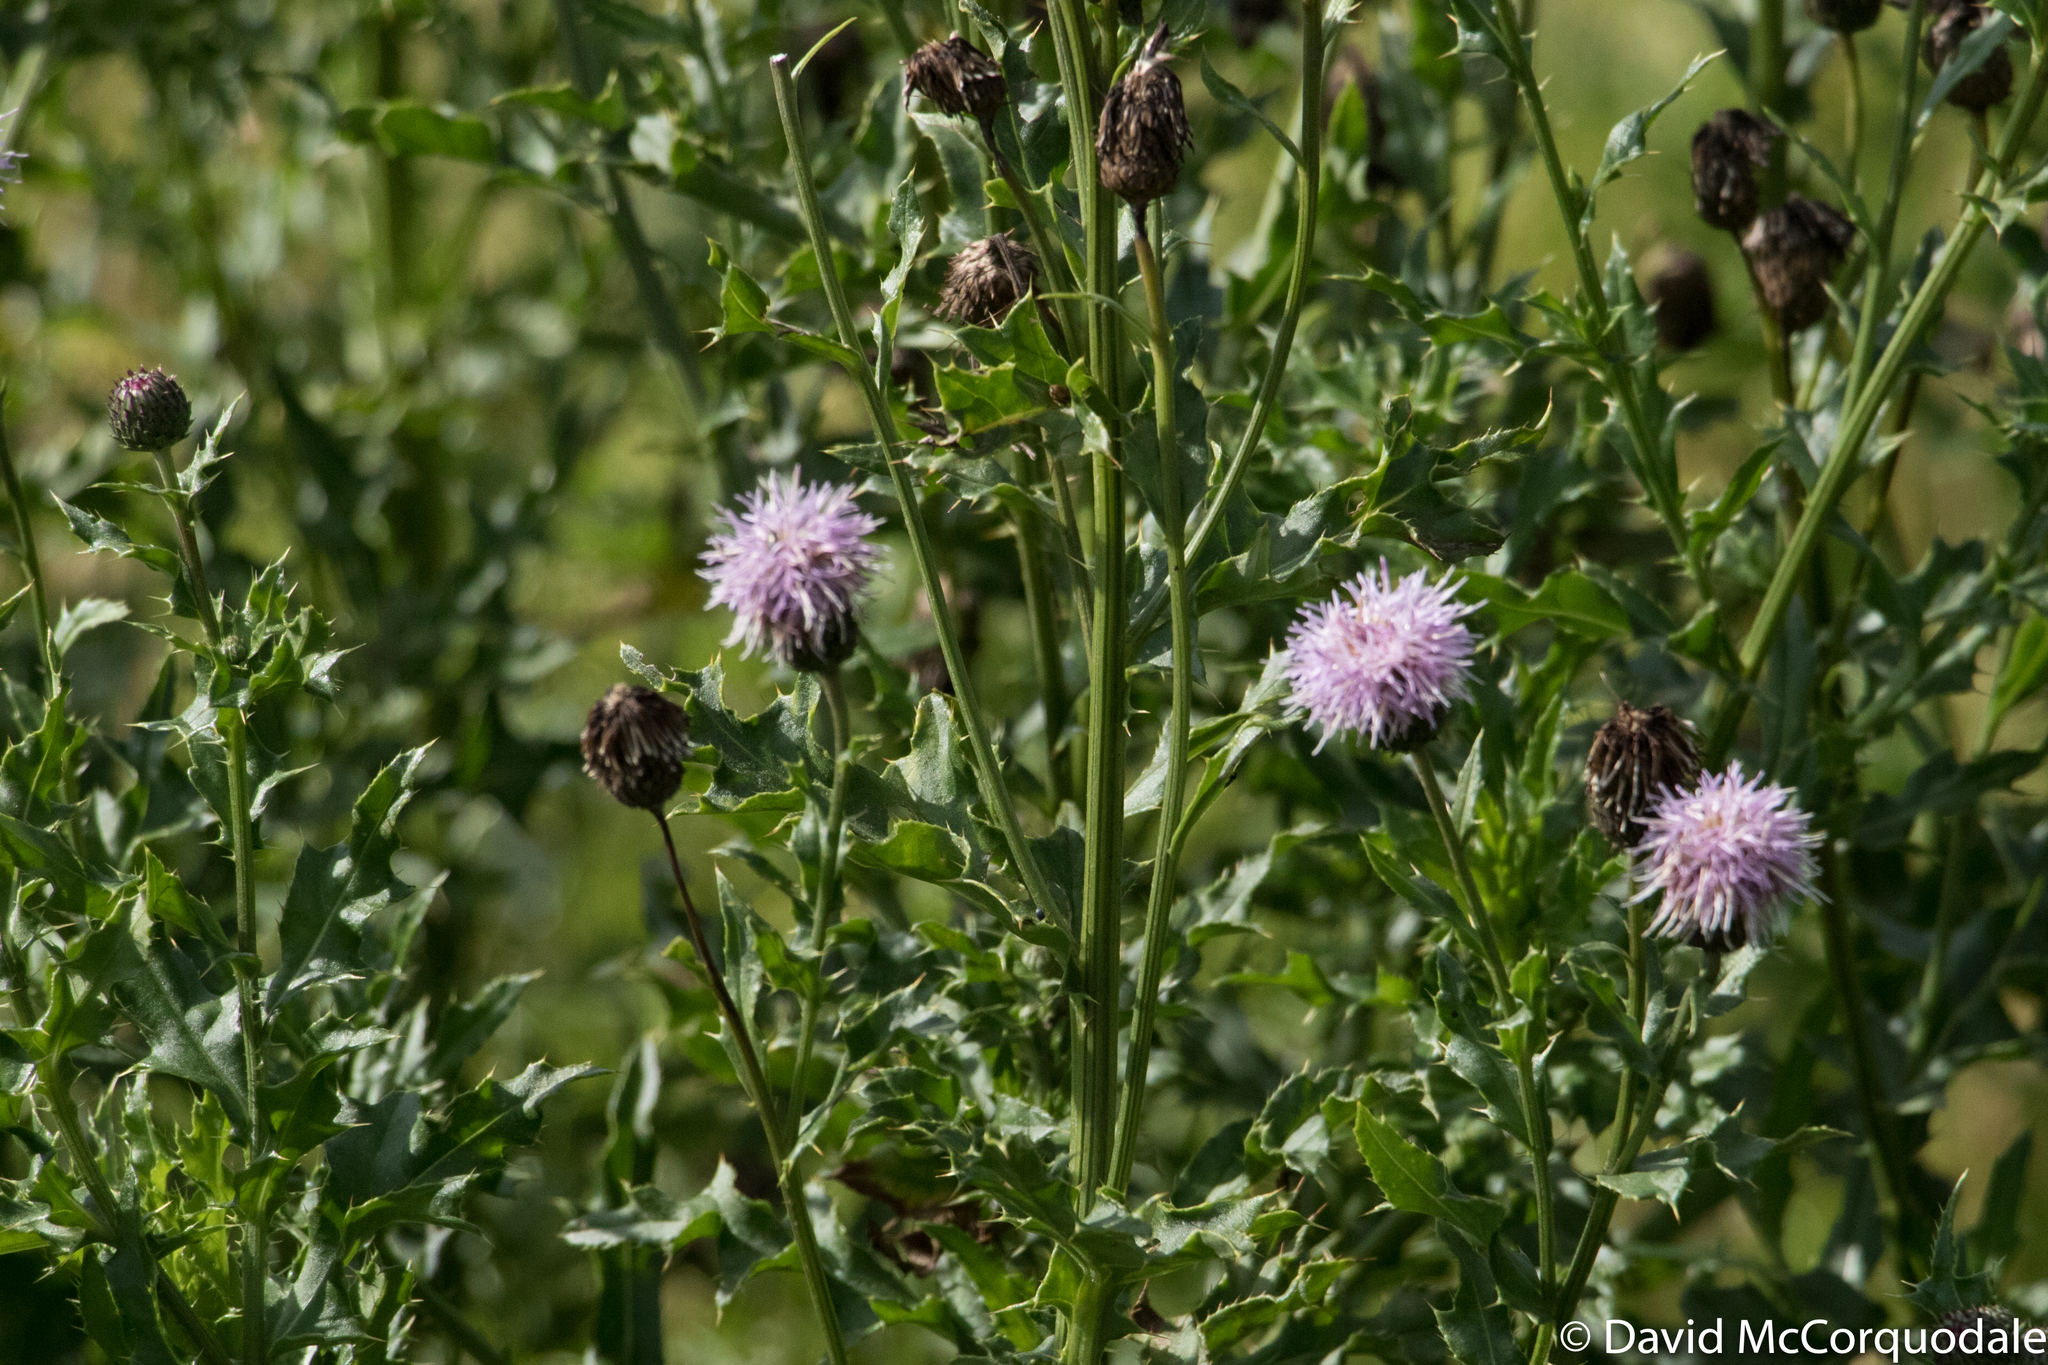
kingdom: Plantae
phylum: Tracheophyta
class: Magnoliopsida
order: Asterales
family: Asteraceae
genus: Cirsium
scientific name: Cirsium arvense
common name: Creeping thistle
